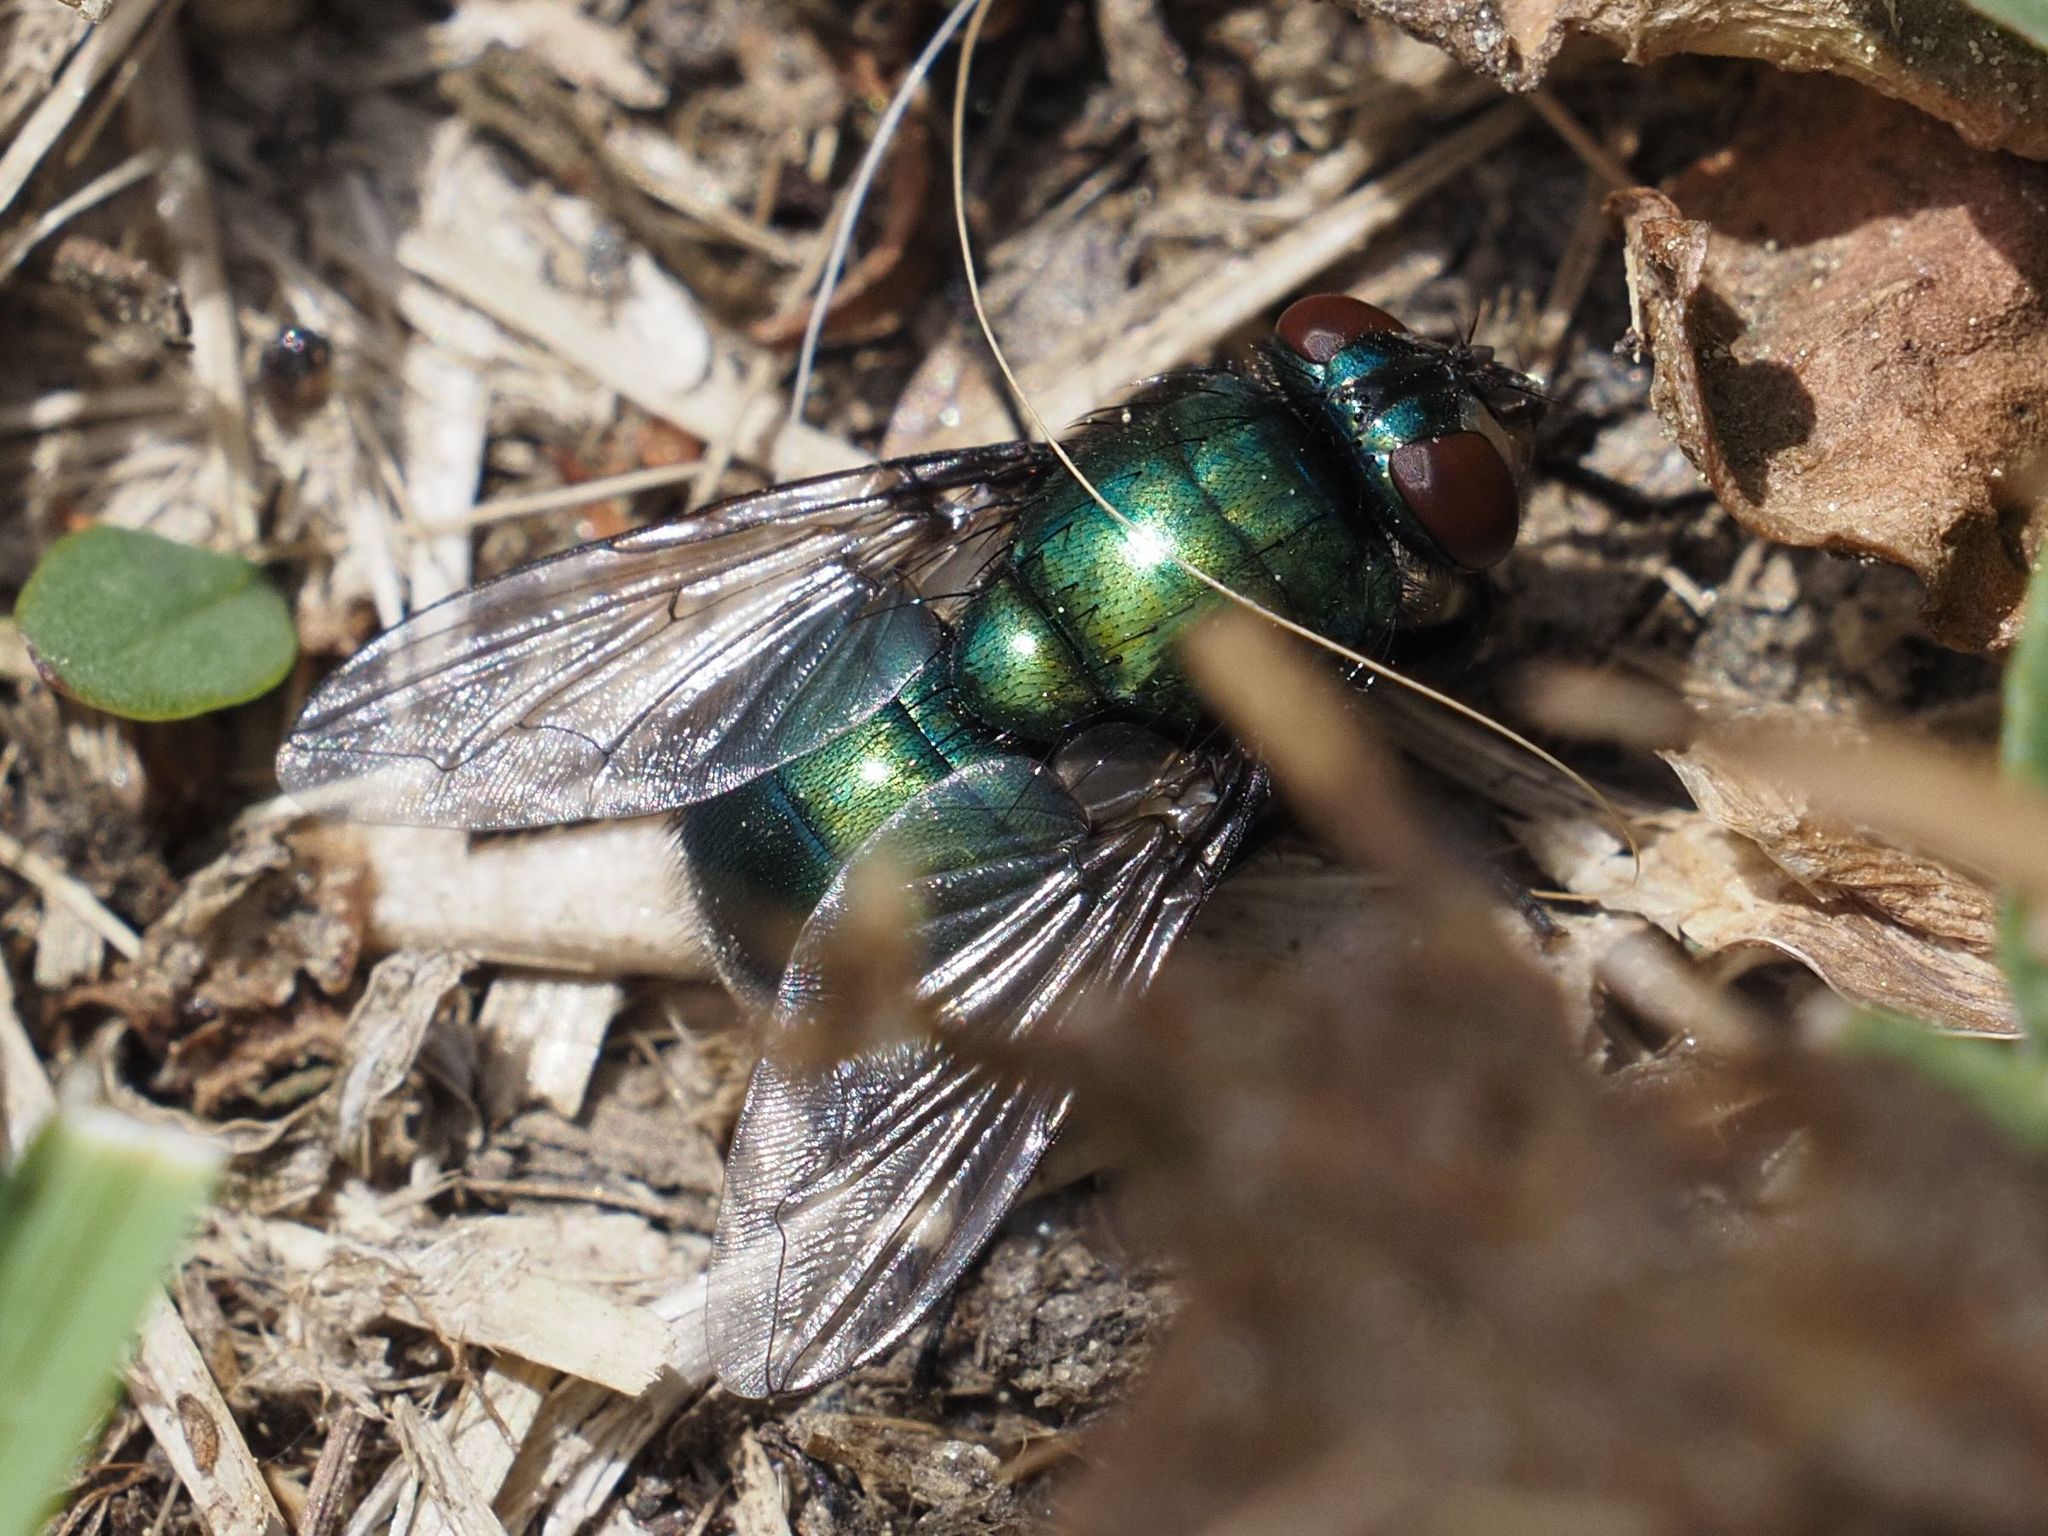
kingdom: Animalia
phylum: Arthropoda
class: Insecta
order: Diptera
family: Muscidae
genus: Neomyia
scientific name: Neomyia viridescens
